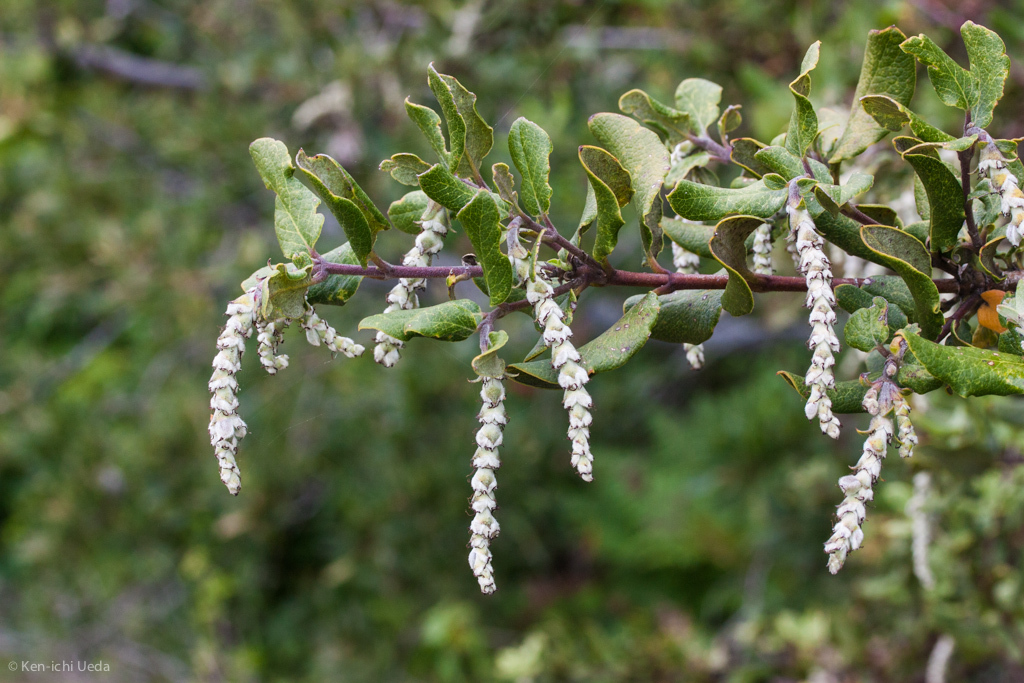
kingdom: Plantae
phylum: Tracheophyta
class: Magnoliopsida
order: Garryales
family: Garryaceae
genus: Garrya
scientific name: Garrya elliptica
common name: Silk-tassel
